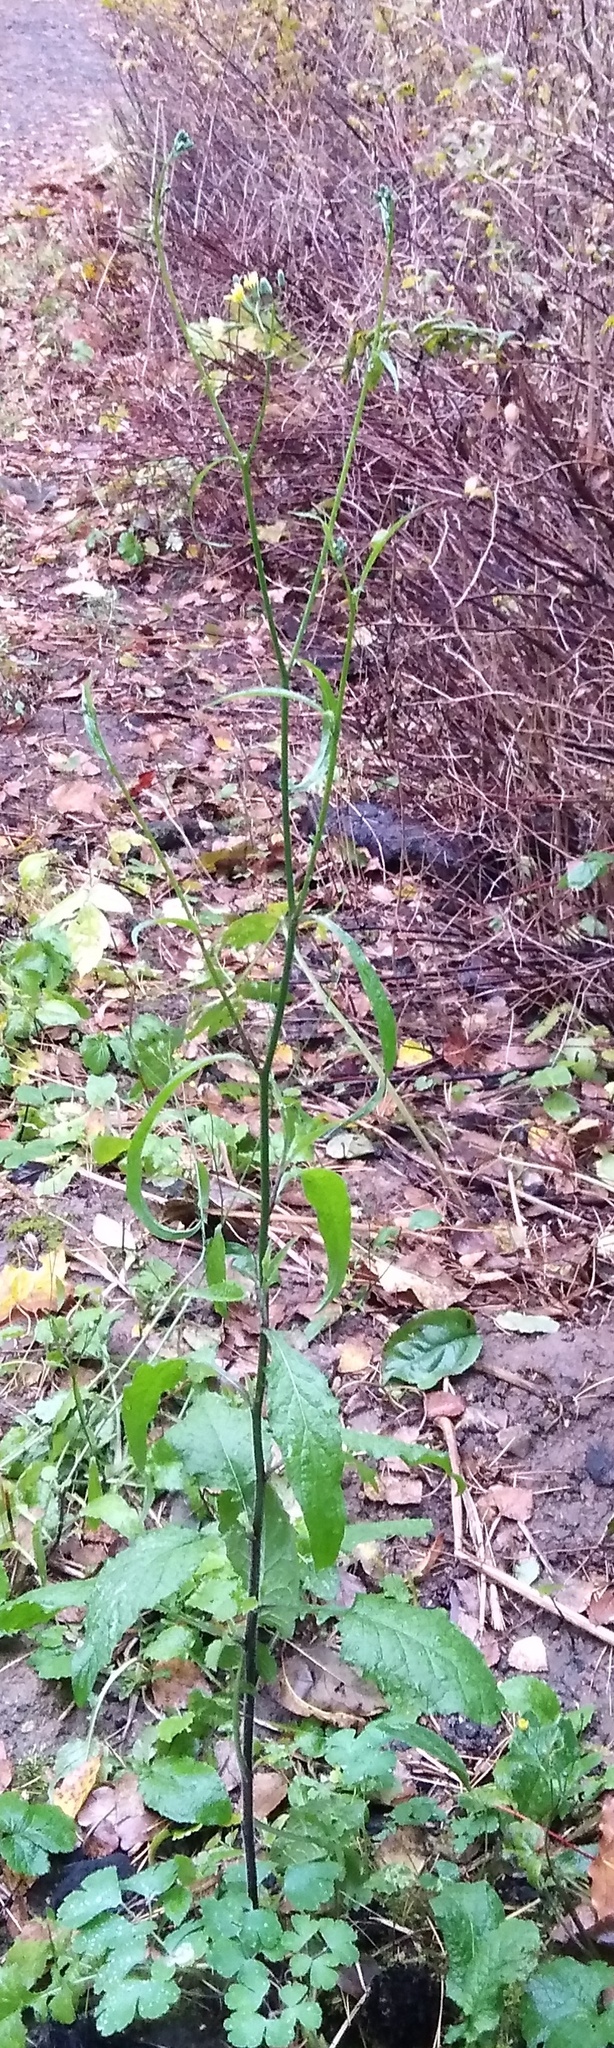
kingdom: Plantae
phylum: Tracheophyta
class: Magnoliopsida
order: Asterales
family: Asteraceae
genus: Lapsana
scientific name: Lapsana communis
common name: Nipplewort
